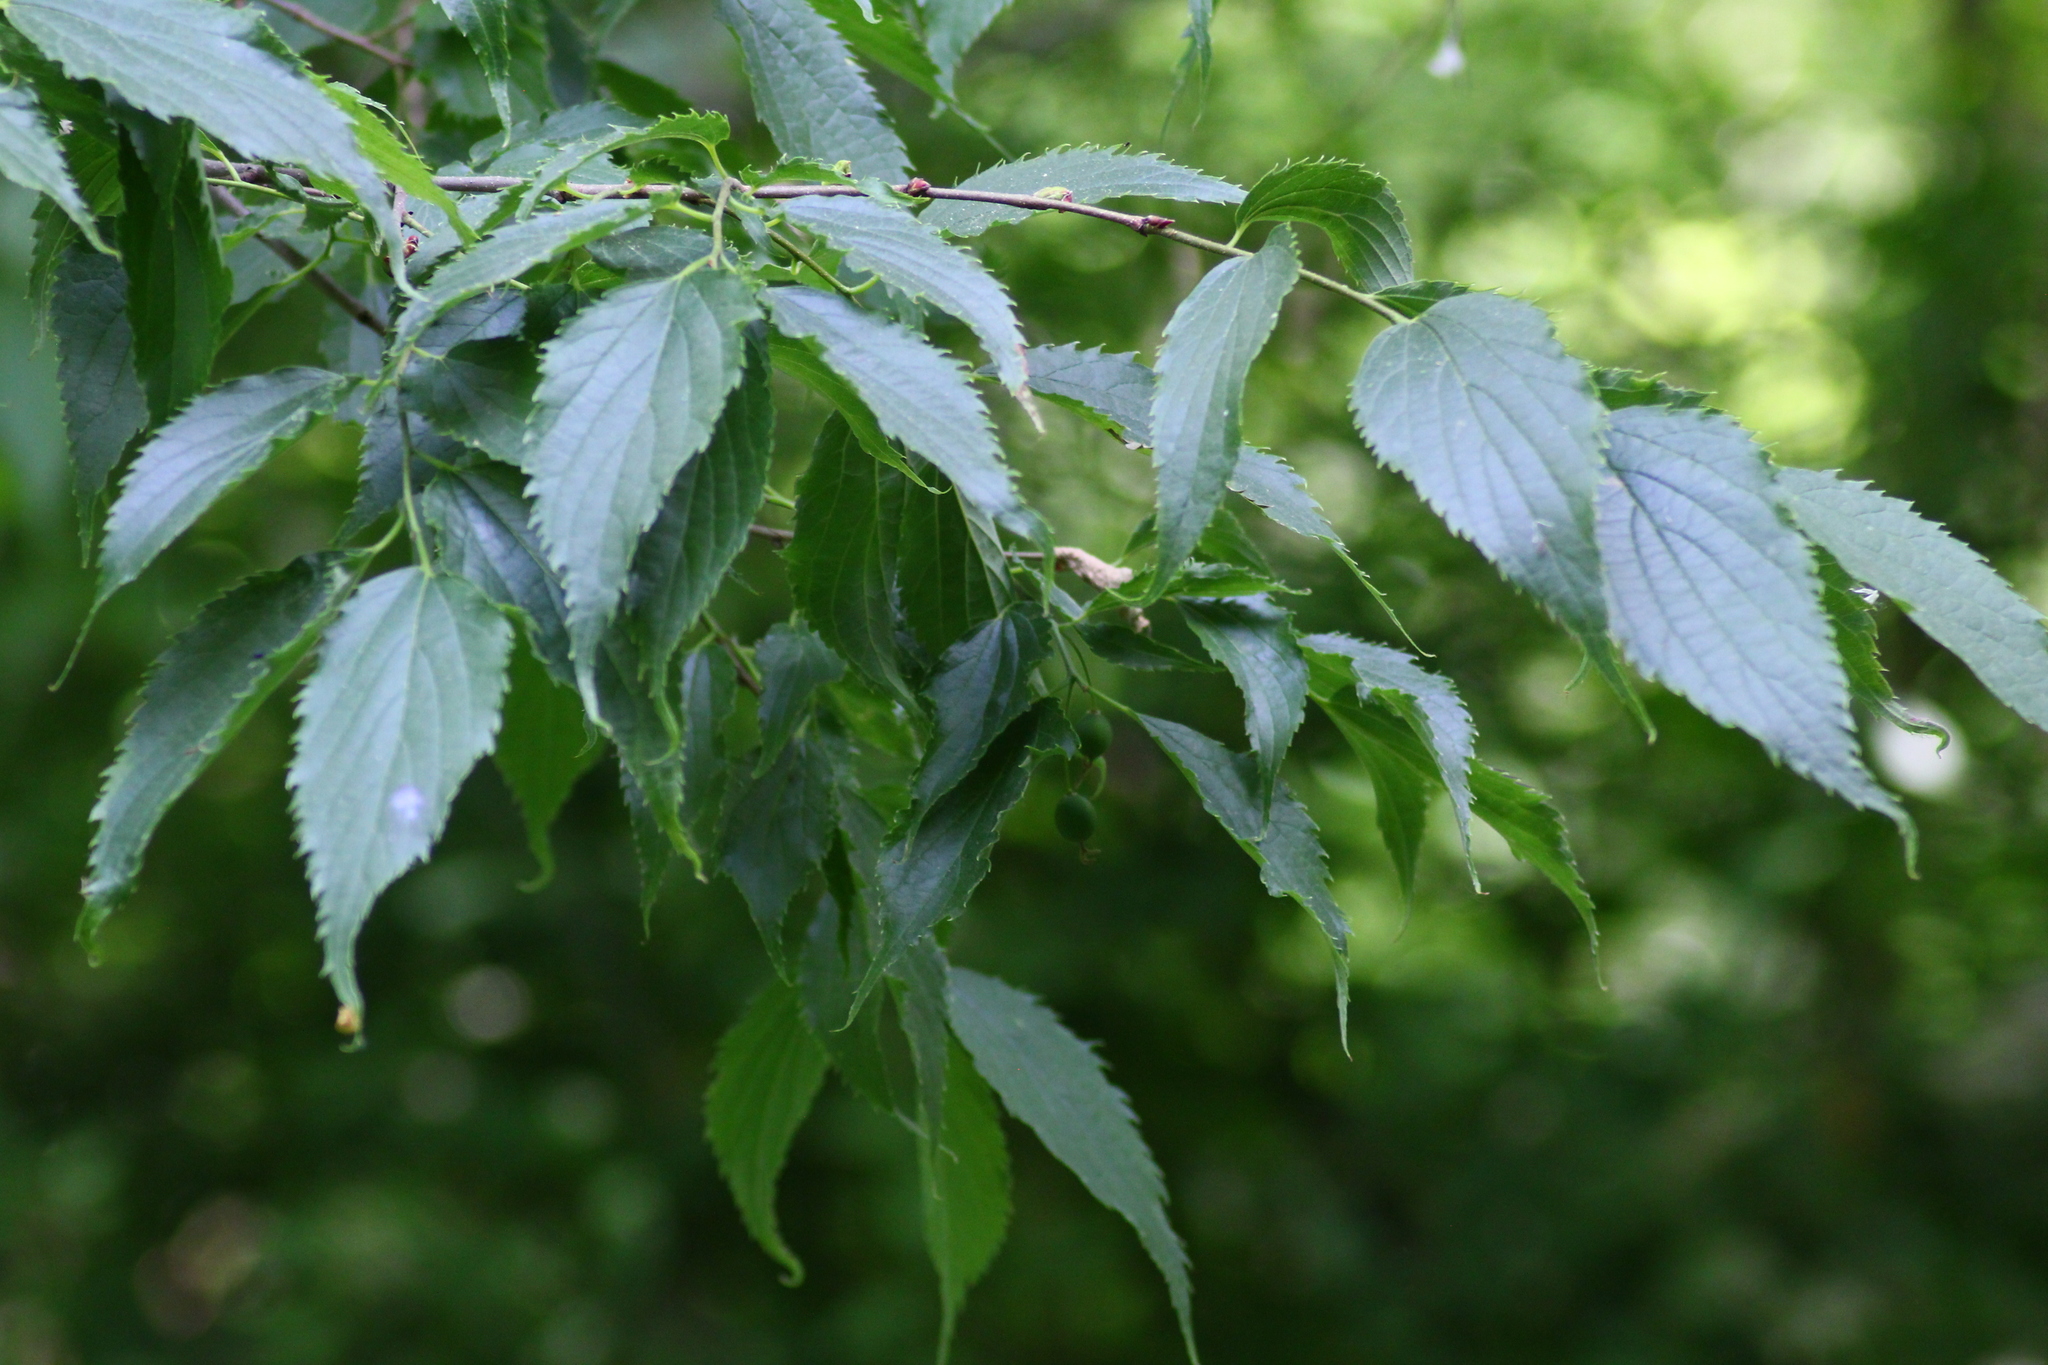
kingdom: Plantae
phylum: Tracheophyta
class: Magnoliopsida
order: Rosales
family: Cannabaceae
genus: Celtis
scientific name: Celtis australis
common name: European hackberry
